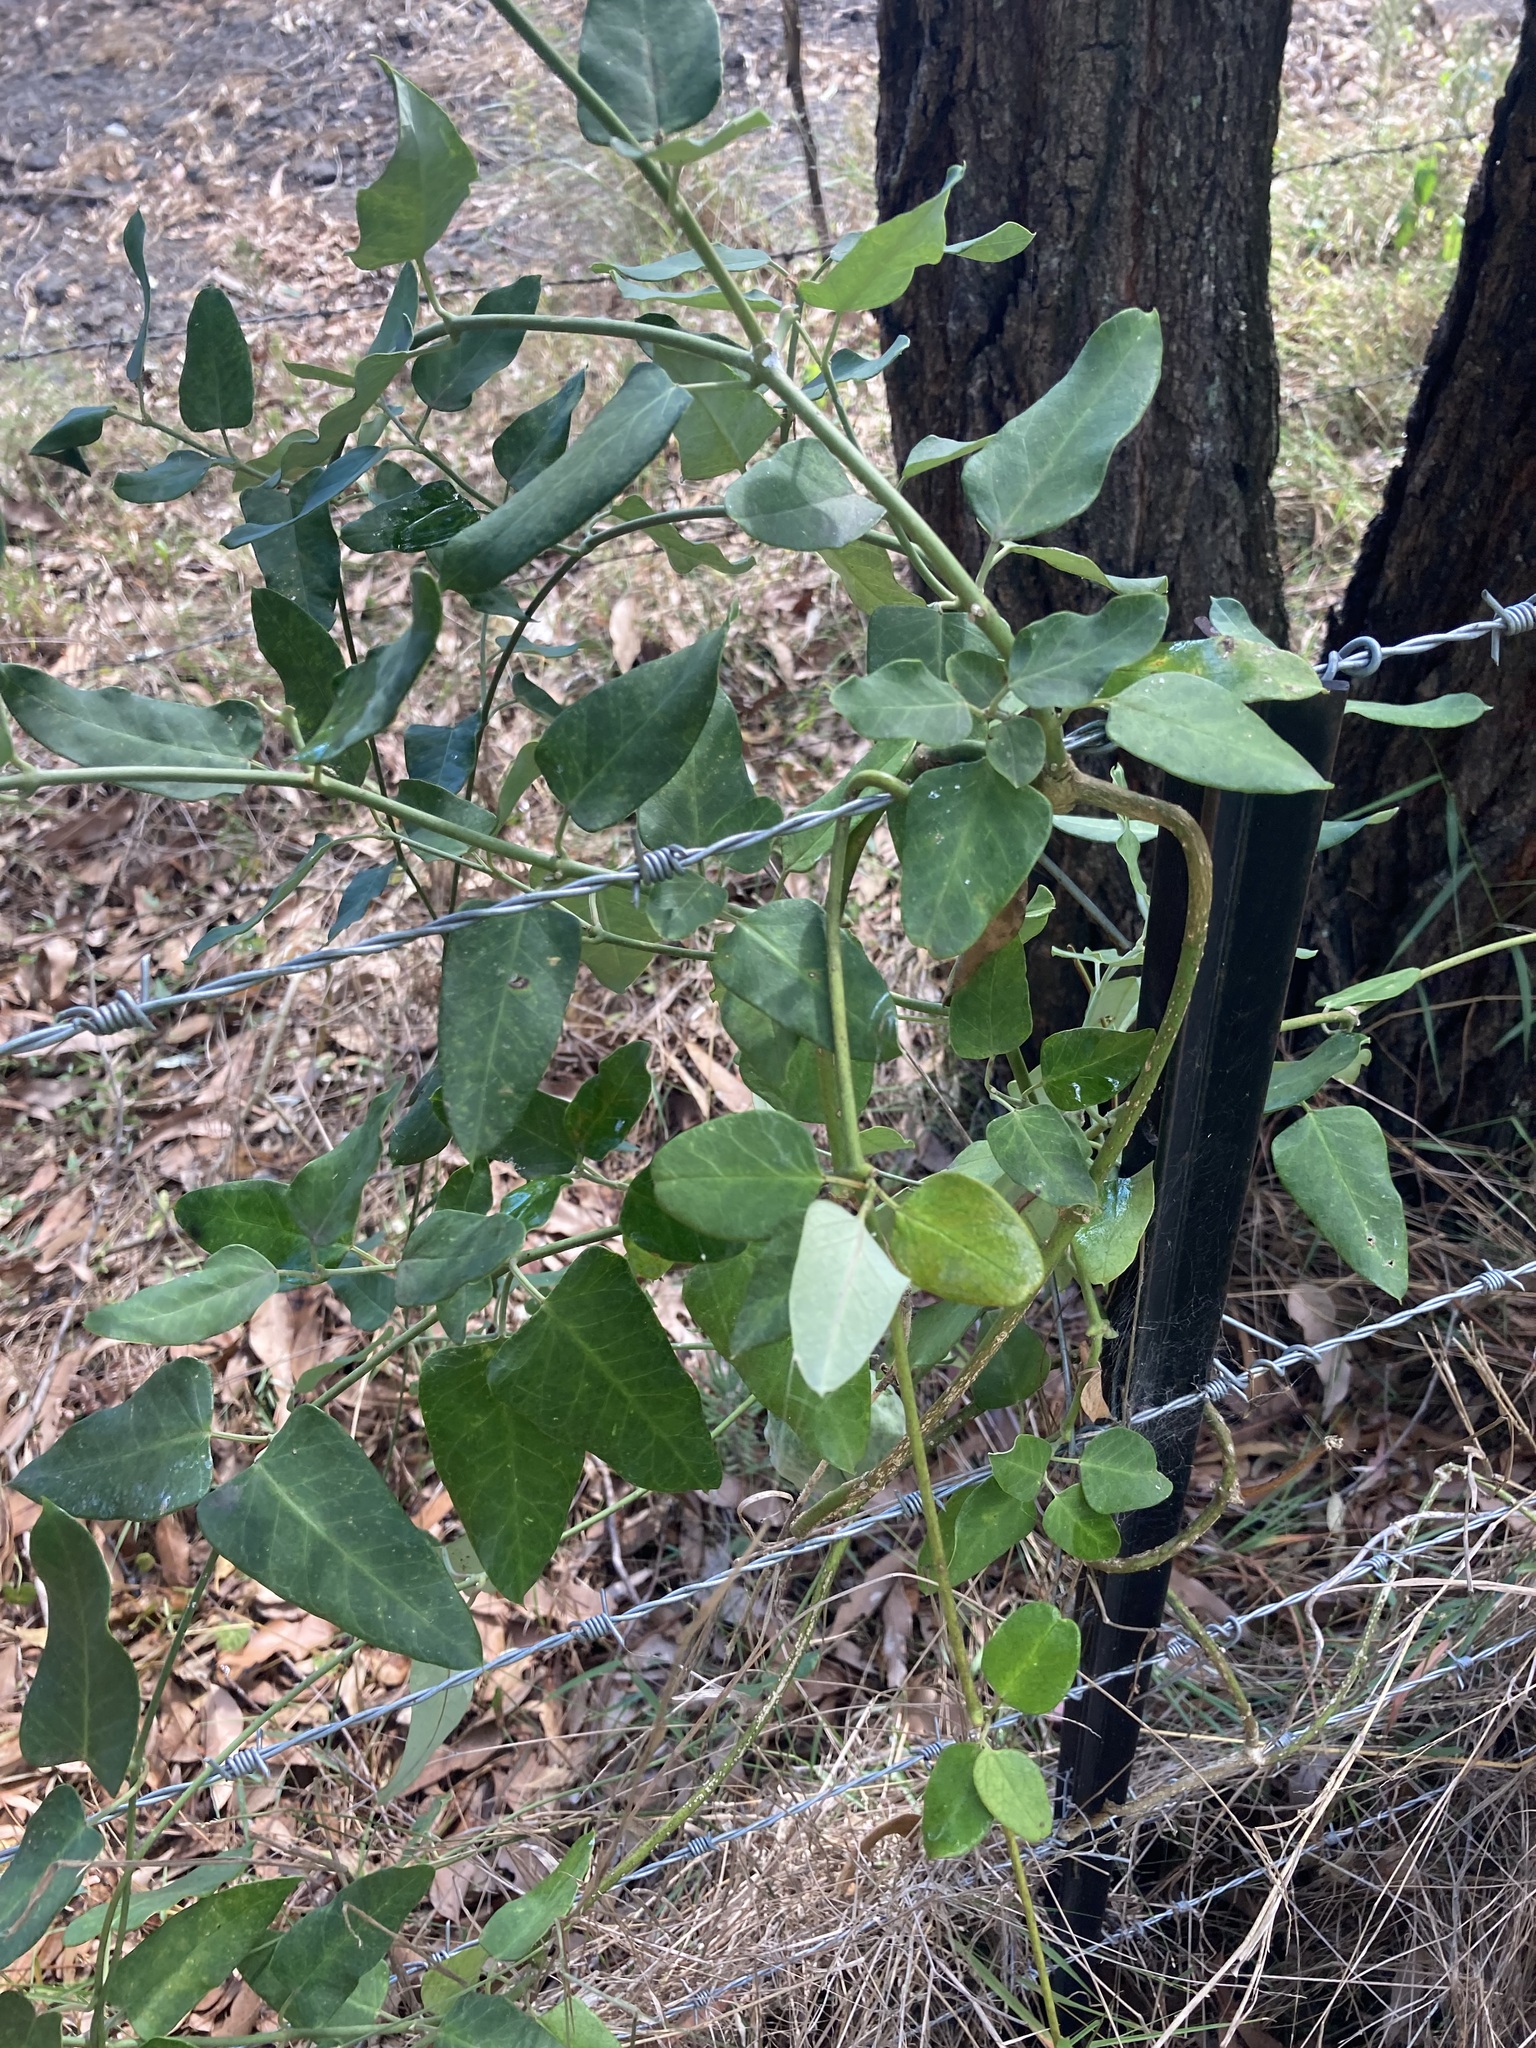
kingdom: Plantae
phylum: Tracheophyta
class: Magnoliopsida
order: Gentianales
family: Apocynaceae
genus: Araujia
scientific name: Araujia sericifera
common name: White bladderflower
